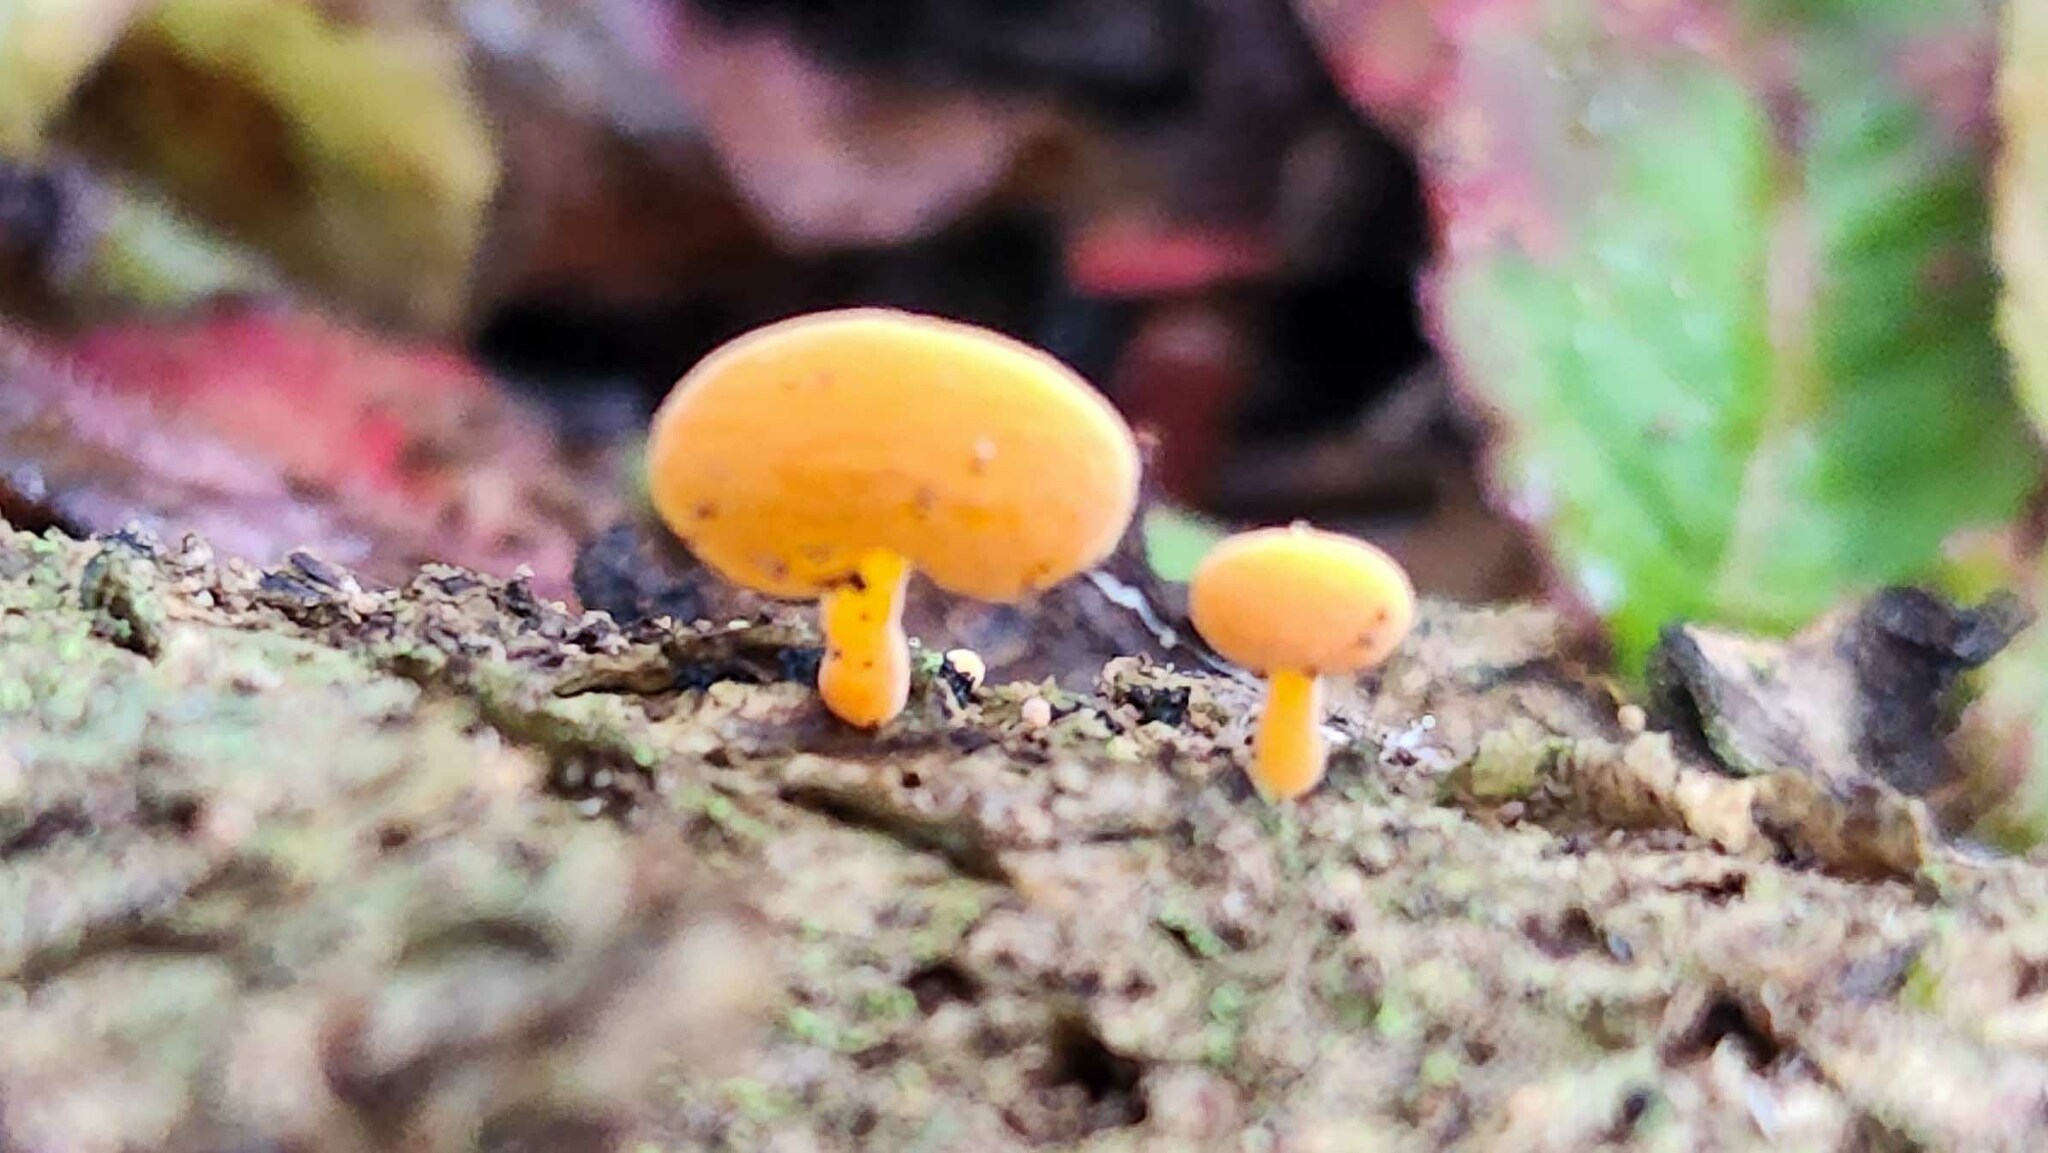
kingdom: Fungi
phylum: Basidiomycota
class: Agaricomycetes
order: Agaricales
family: Mycenaceae
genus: Favolaschia
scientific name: Favolaschia claudopus
